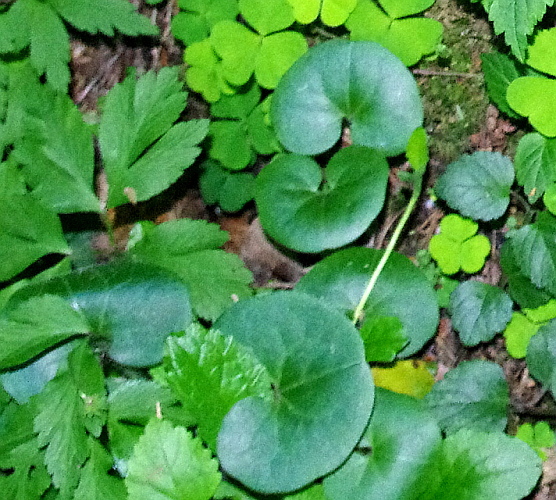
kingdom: Plantae
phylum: Tracheophyta
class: Magnoliopsida
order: Piperales
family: Aristolochiaceae
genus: Asarum
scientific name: Asarum europaeum
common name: Asarabacca
